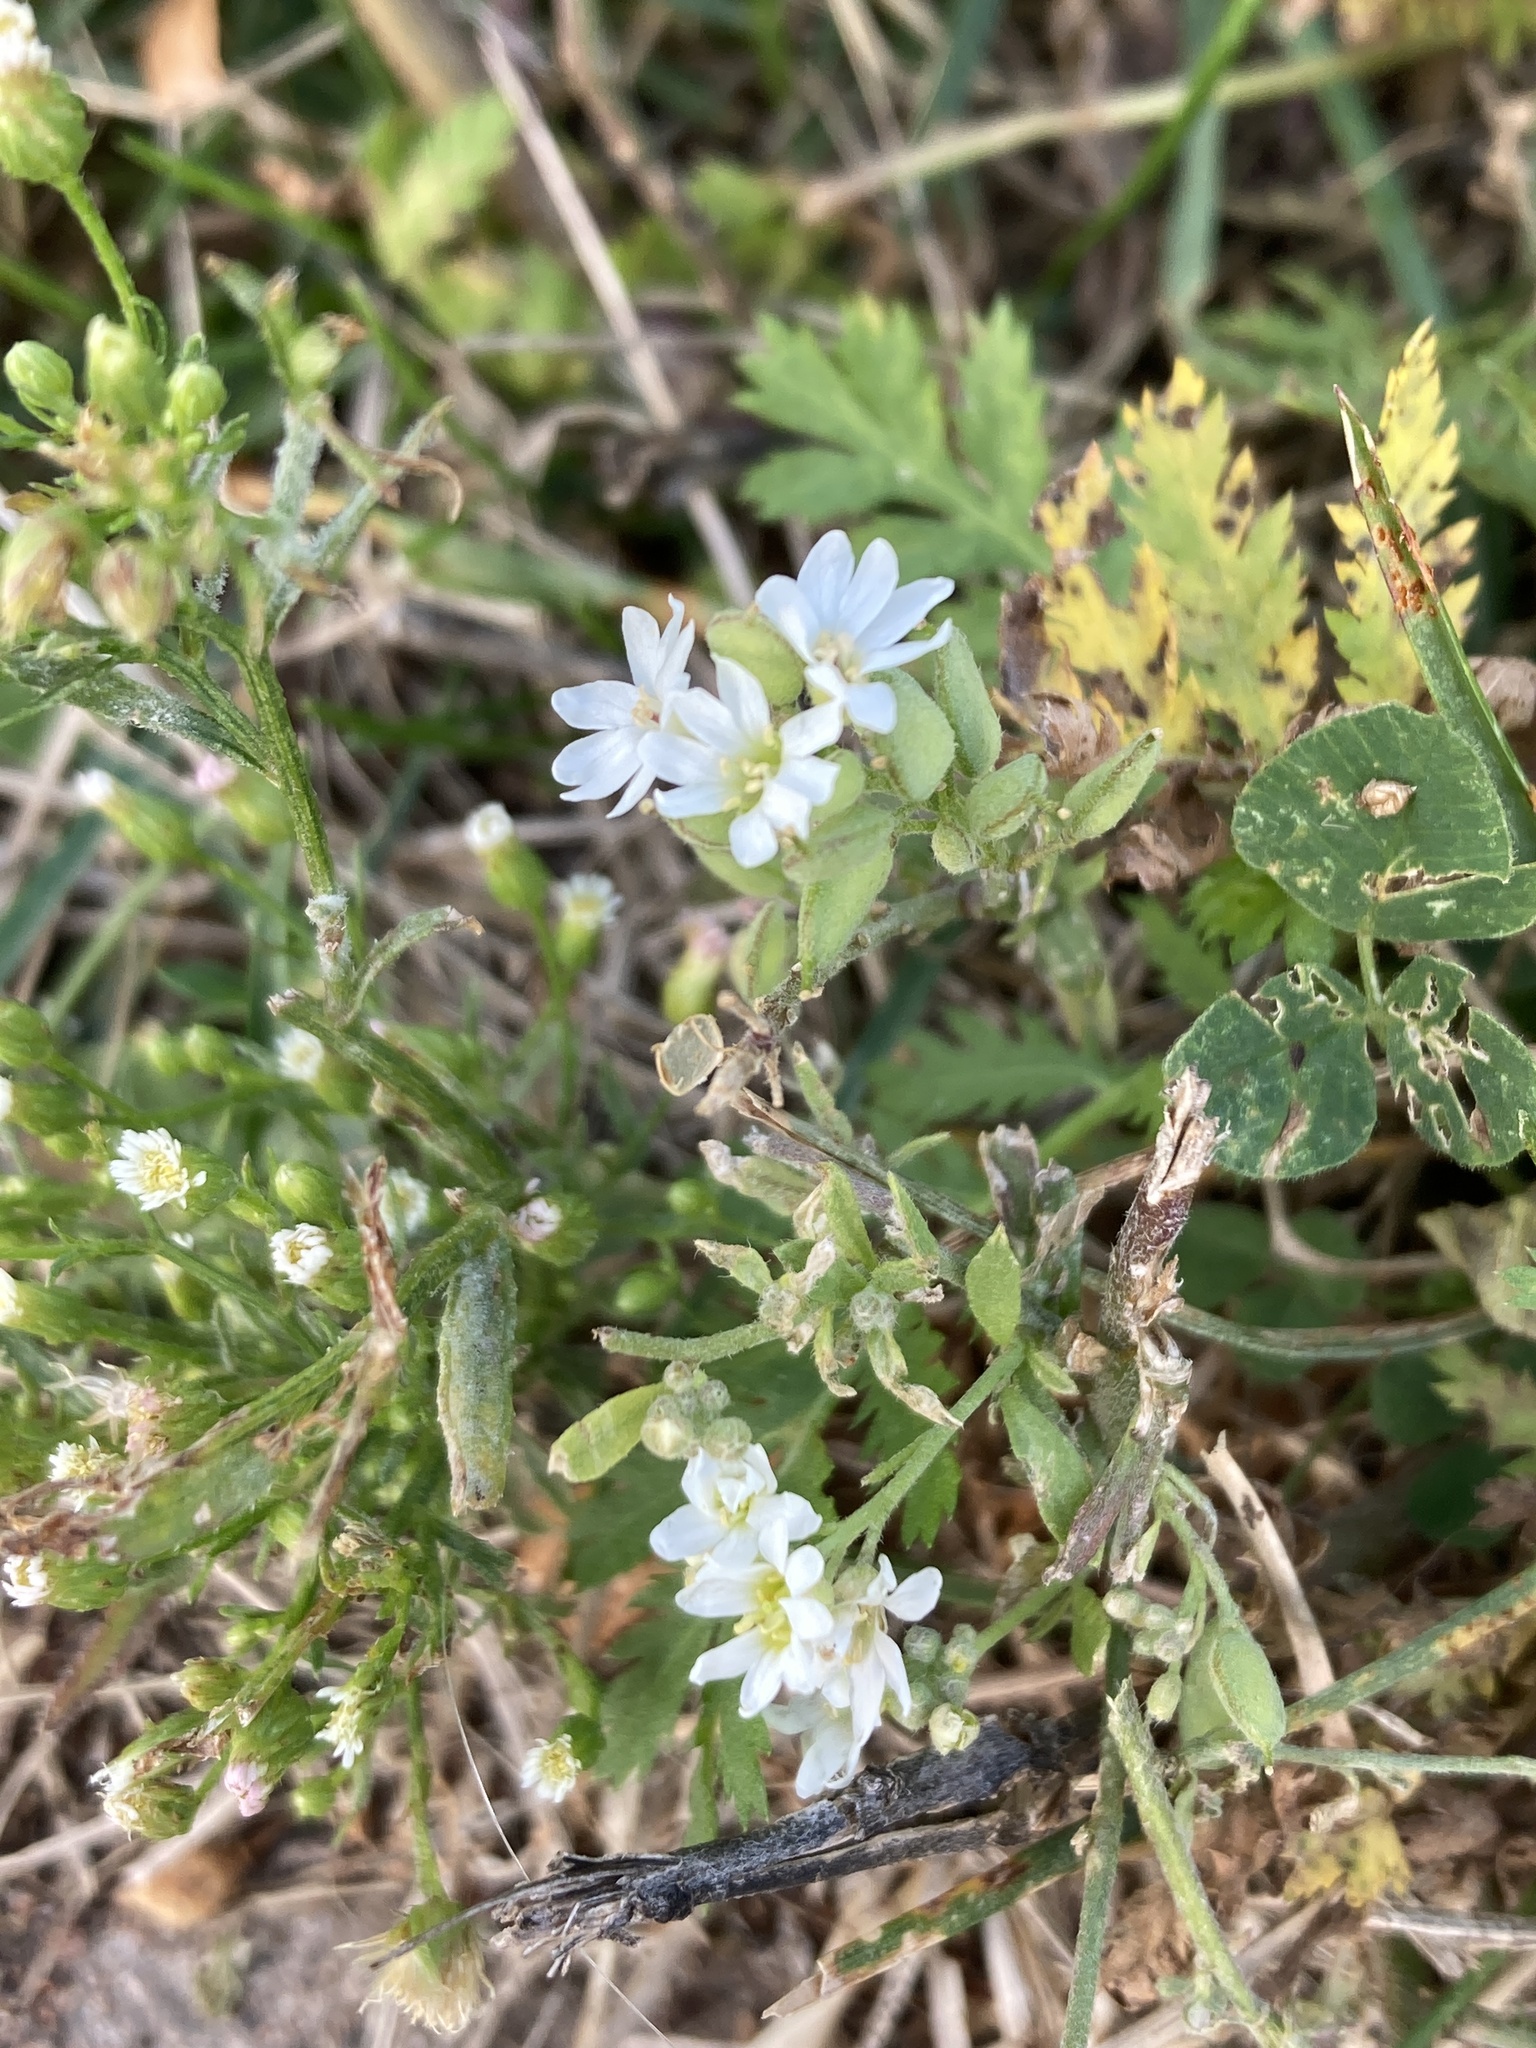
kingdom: Plantae
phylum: Tracheophyta
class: Magnoliopsida
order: Brassicales
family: Brassicaceae
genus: Berteroa
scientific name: Berteroa incana
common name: Hoary alison
